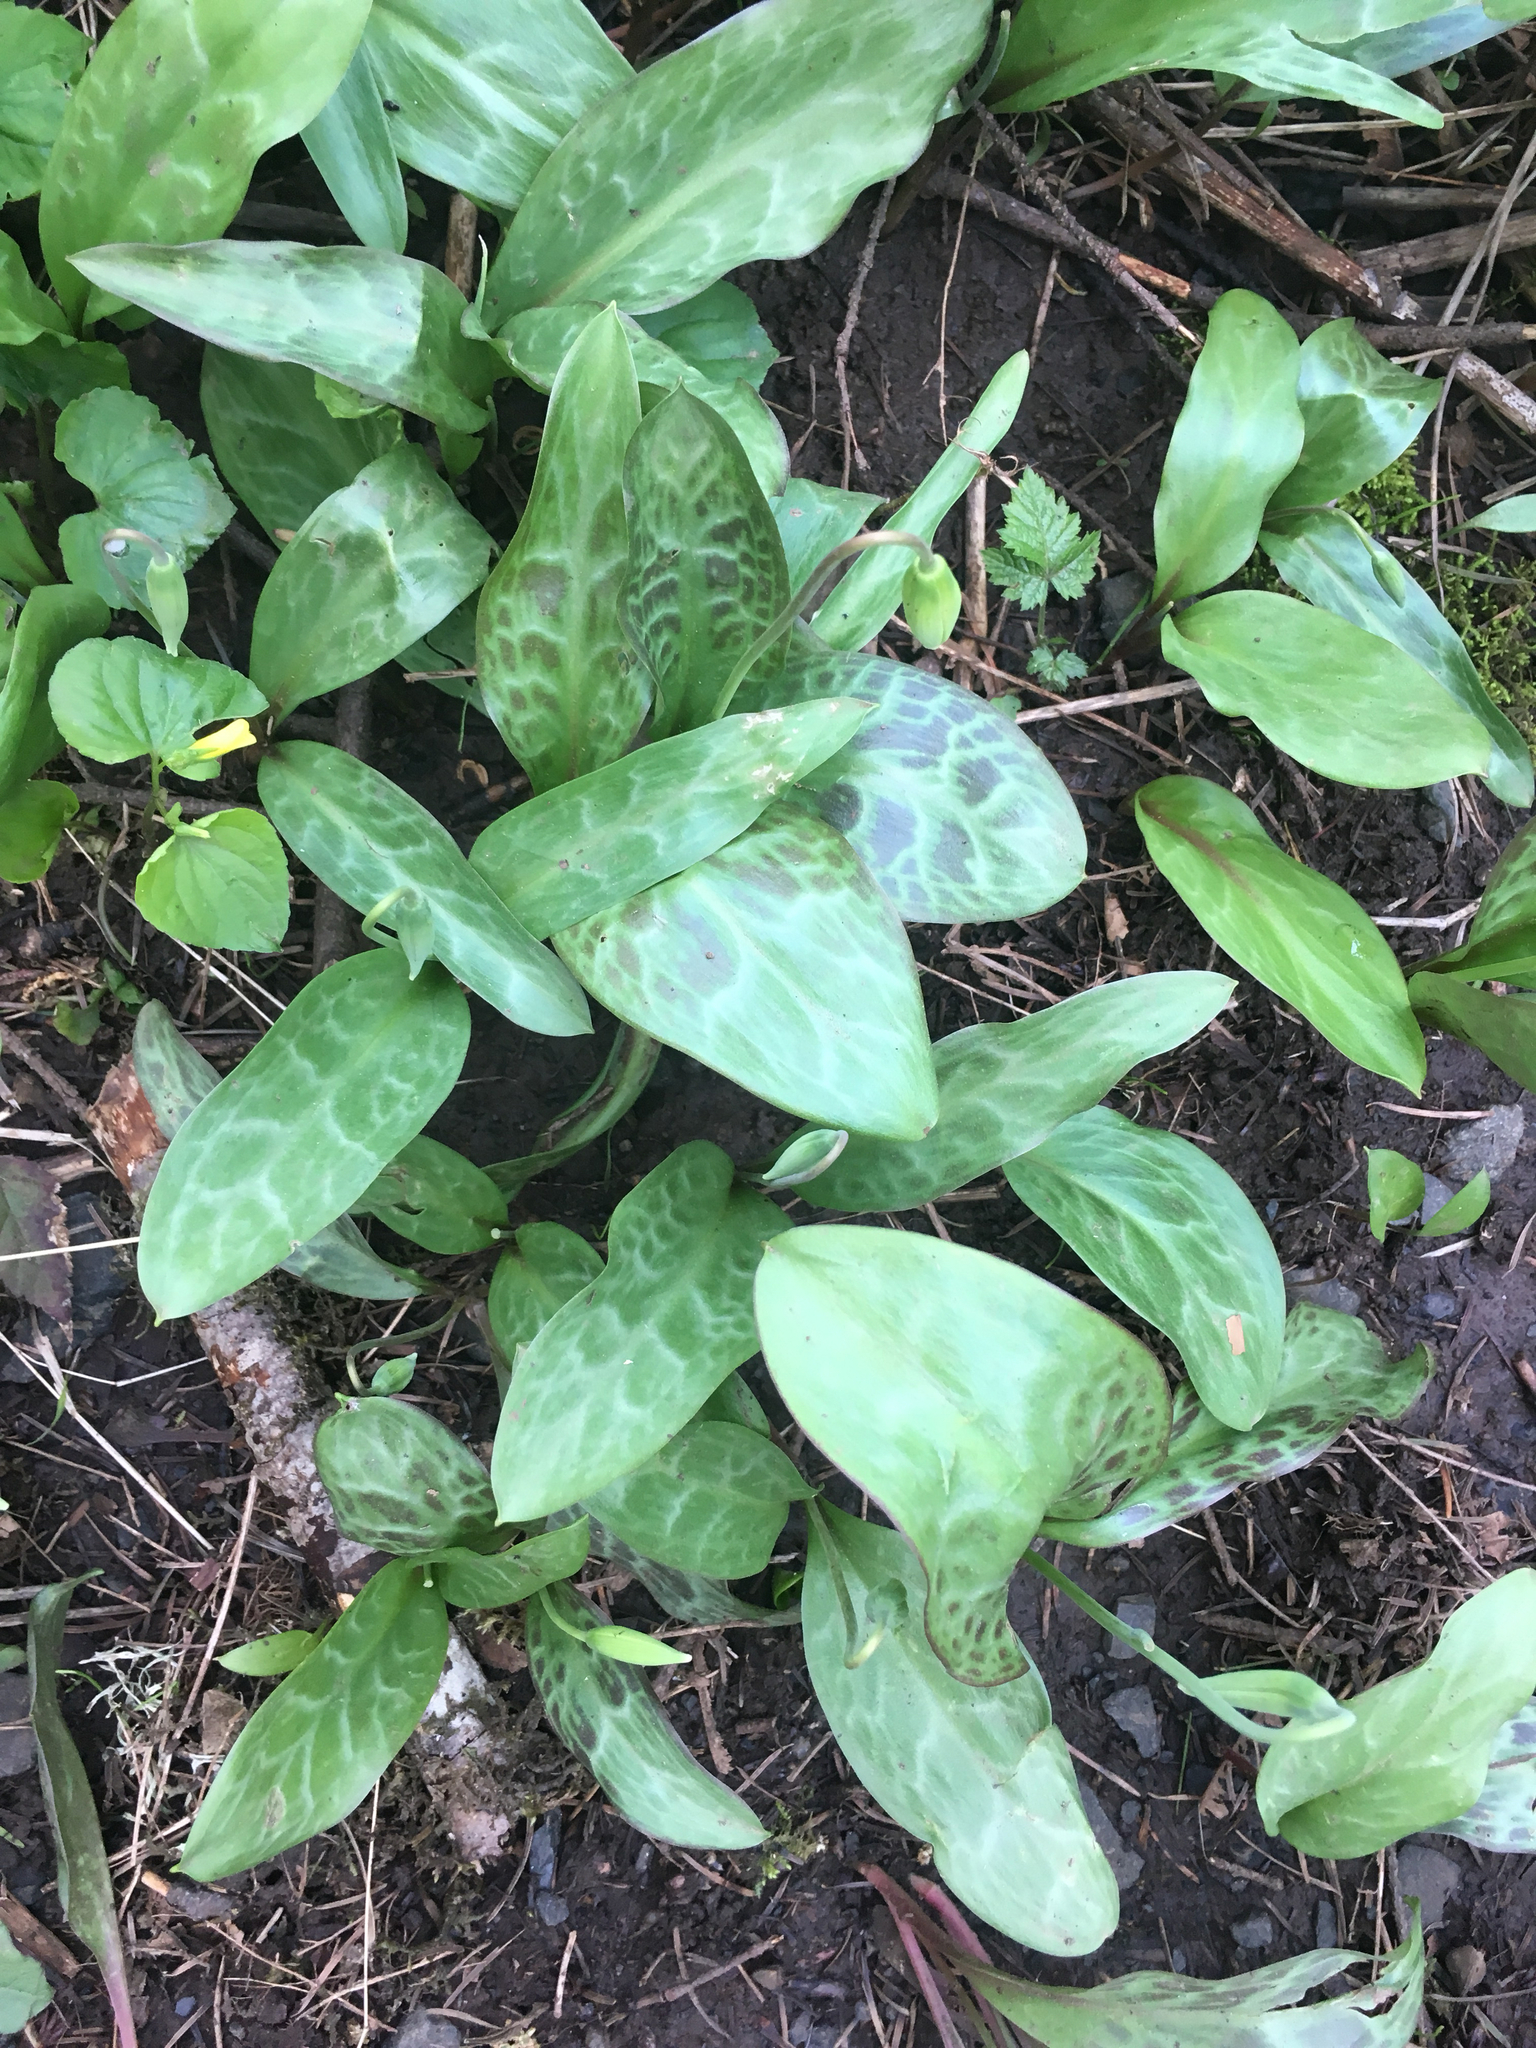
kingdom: Plantae
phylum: Tracheophyta
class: Liliopsida
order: Liliales
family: Liliaceae
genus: Erythronium
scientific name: Erythronium oregonum
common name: Giant adder's-tongue
